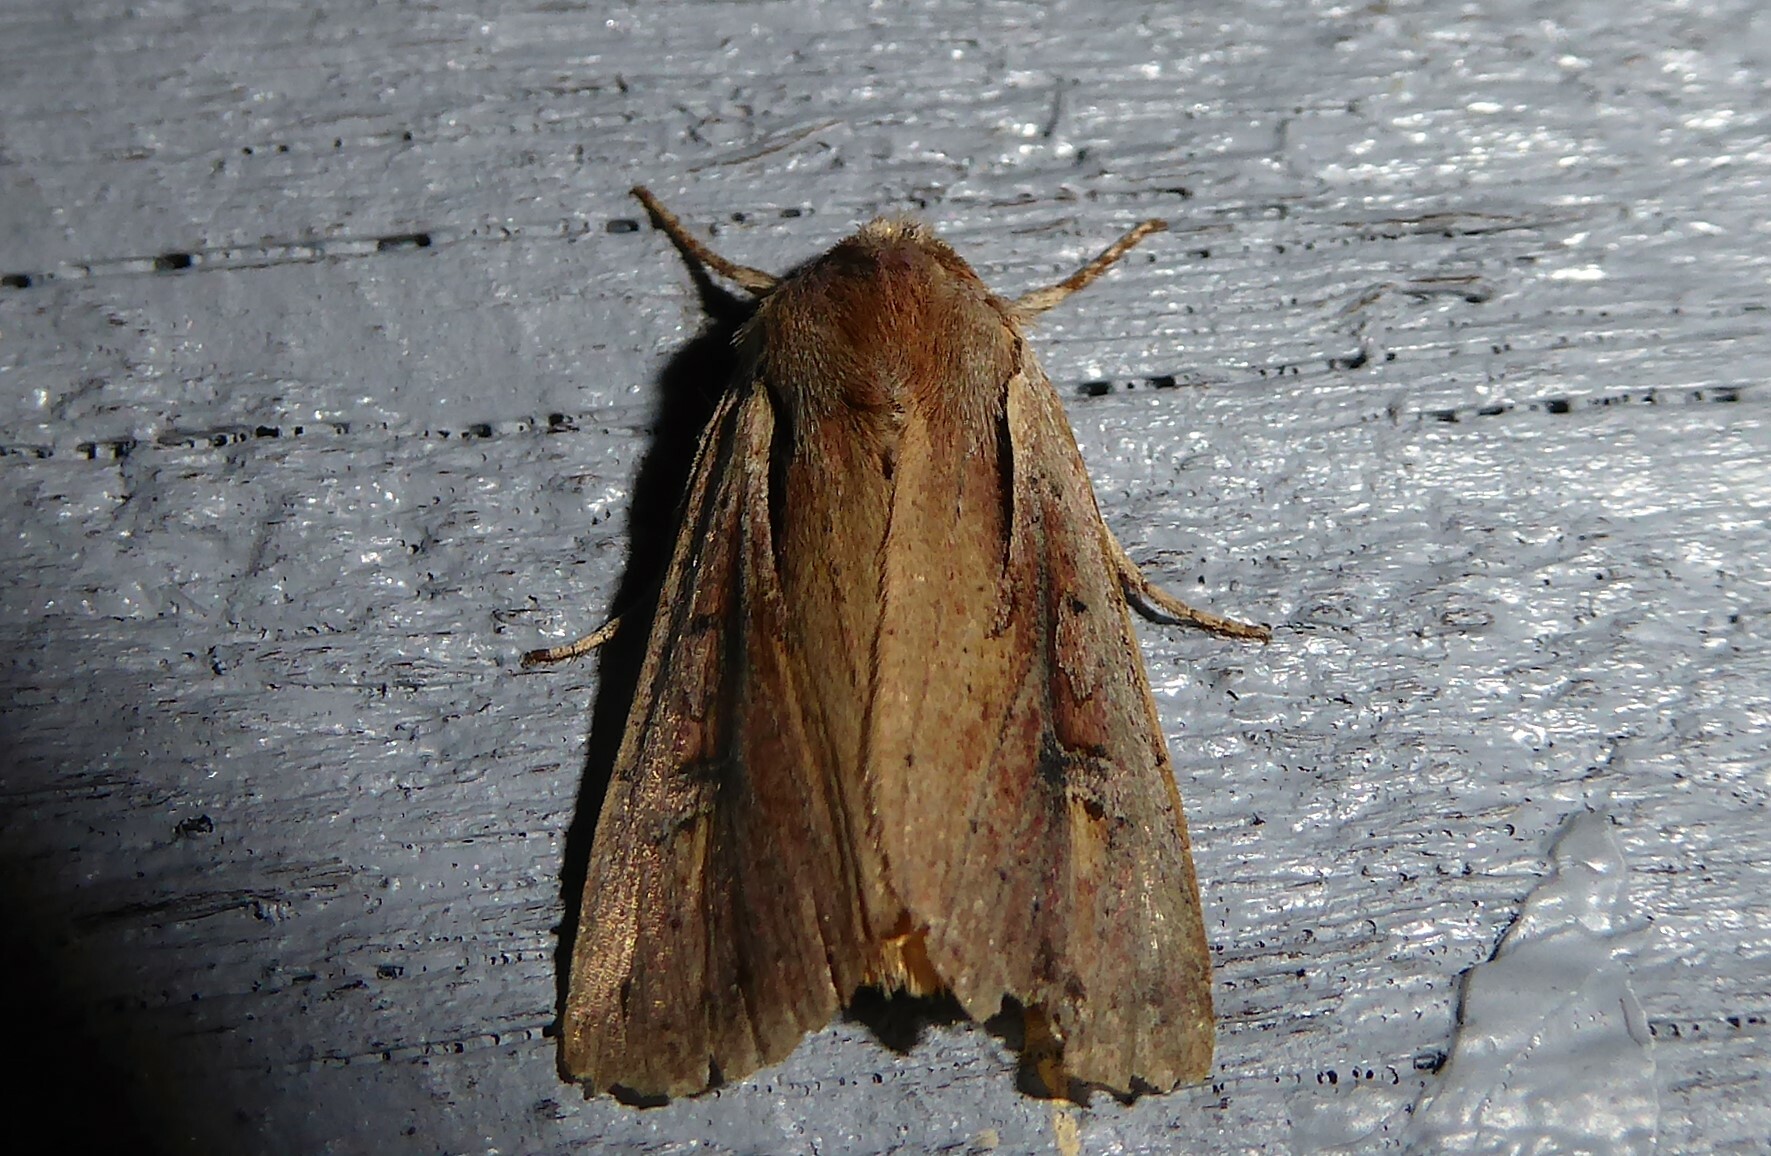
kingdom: Animalia
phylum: Arthropoda
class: Insecta
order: Lepidoptera
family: Noctuidae
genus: Ichneutica
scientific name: Ichneutica atristriga
